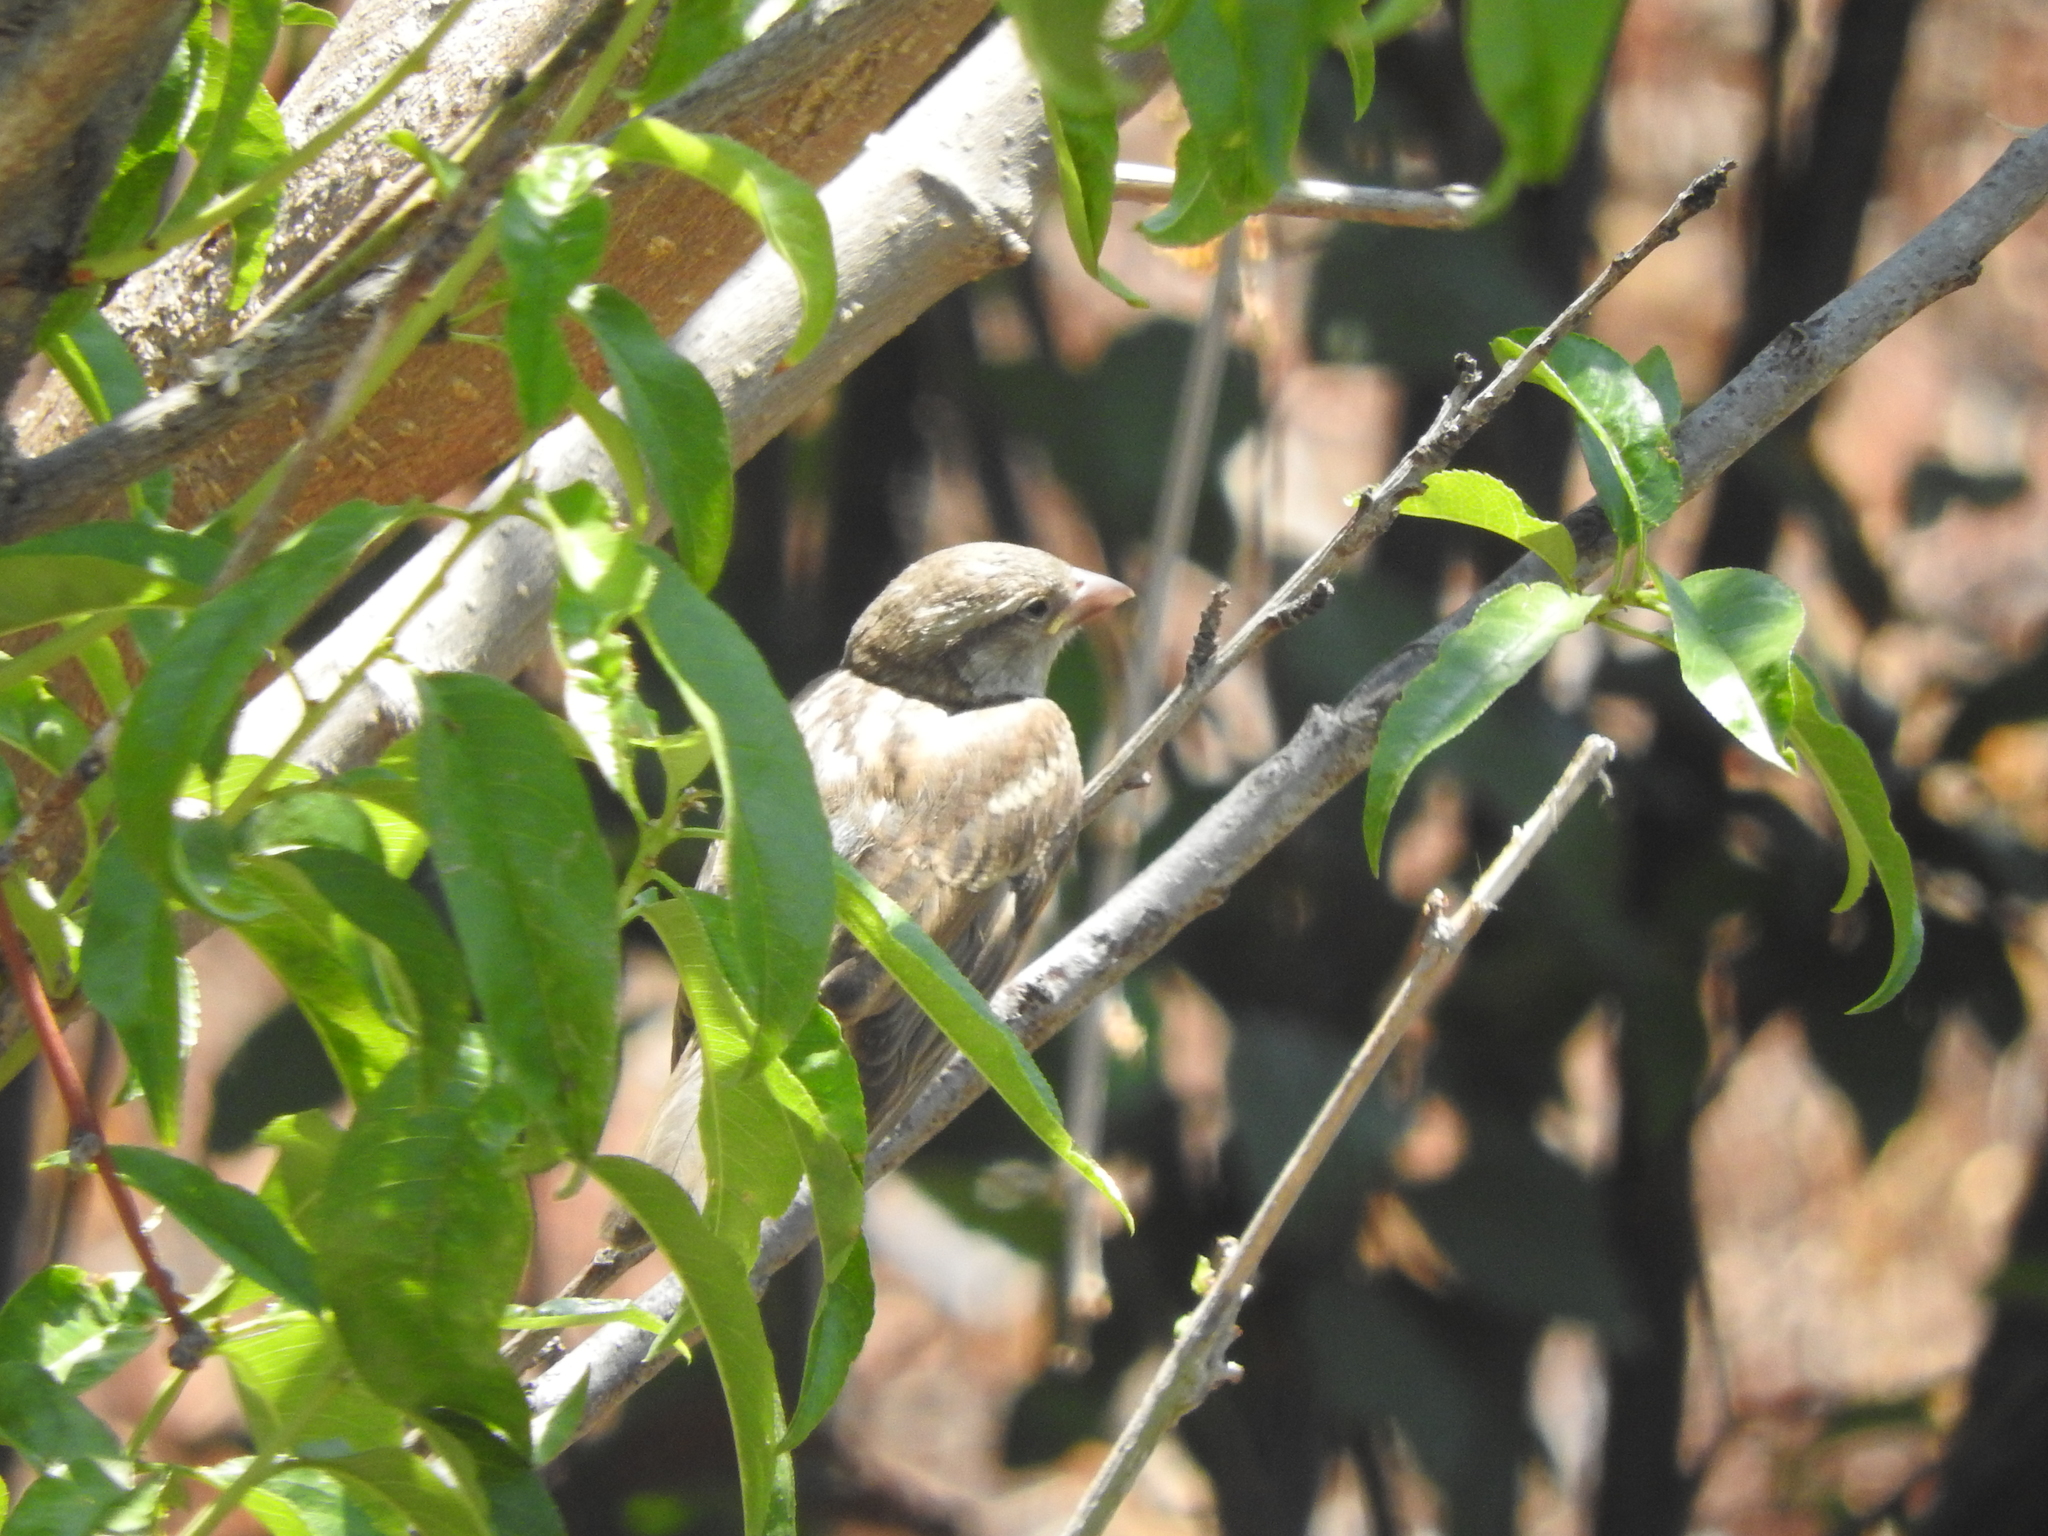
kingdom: Animalia
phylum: Chordata
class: Aves
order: Passeriformes
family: Passeridae
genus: Passer
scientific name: Passer domesticus
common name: House sparrow
